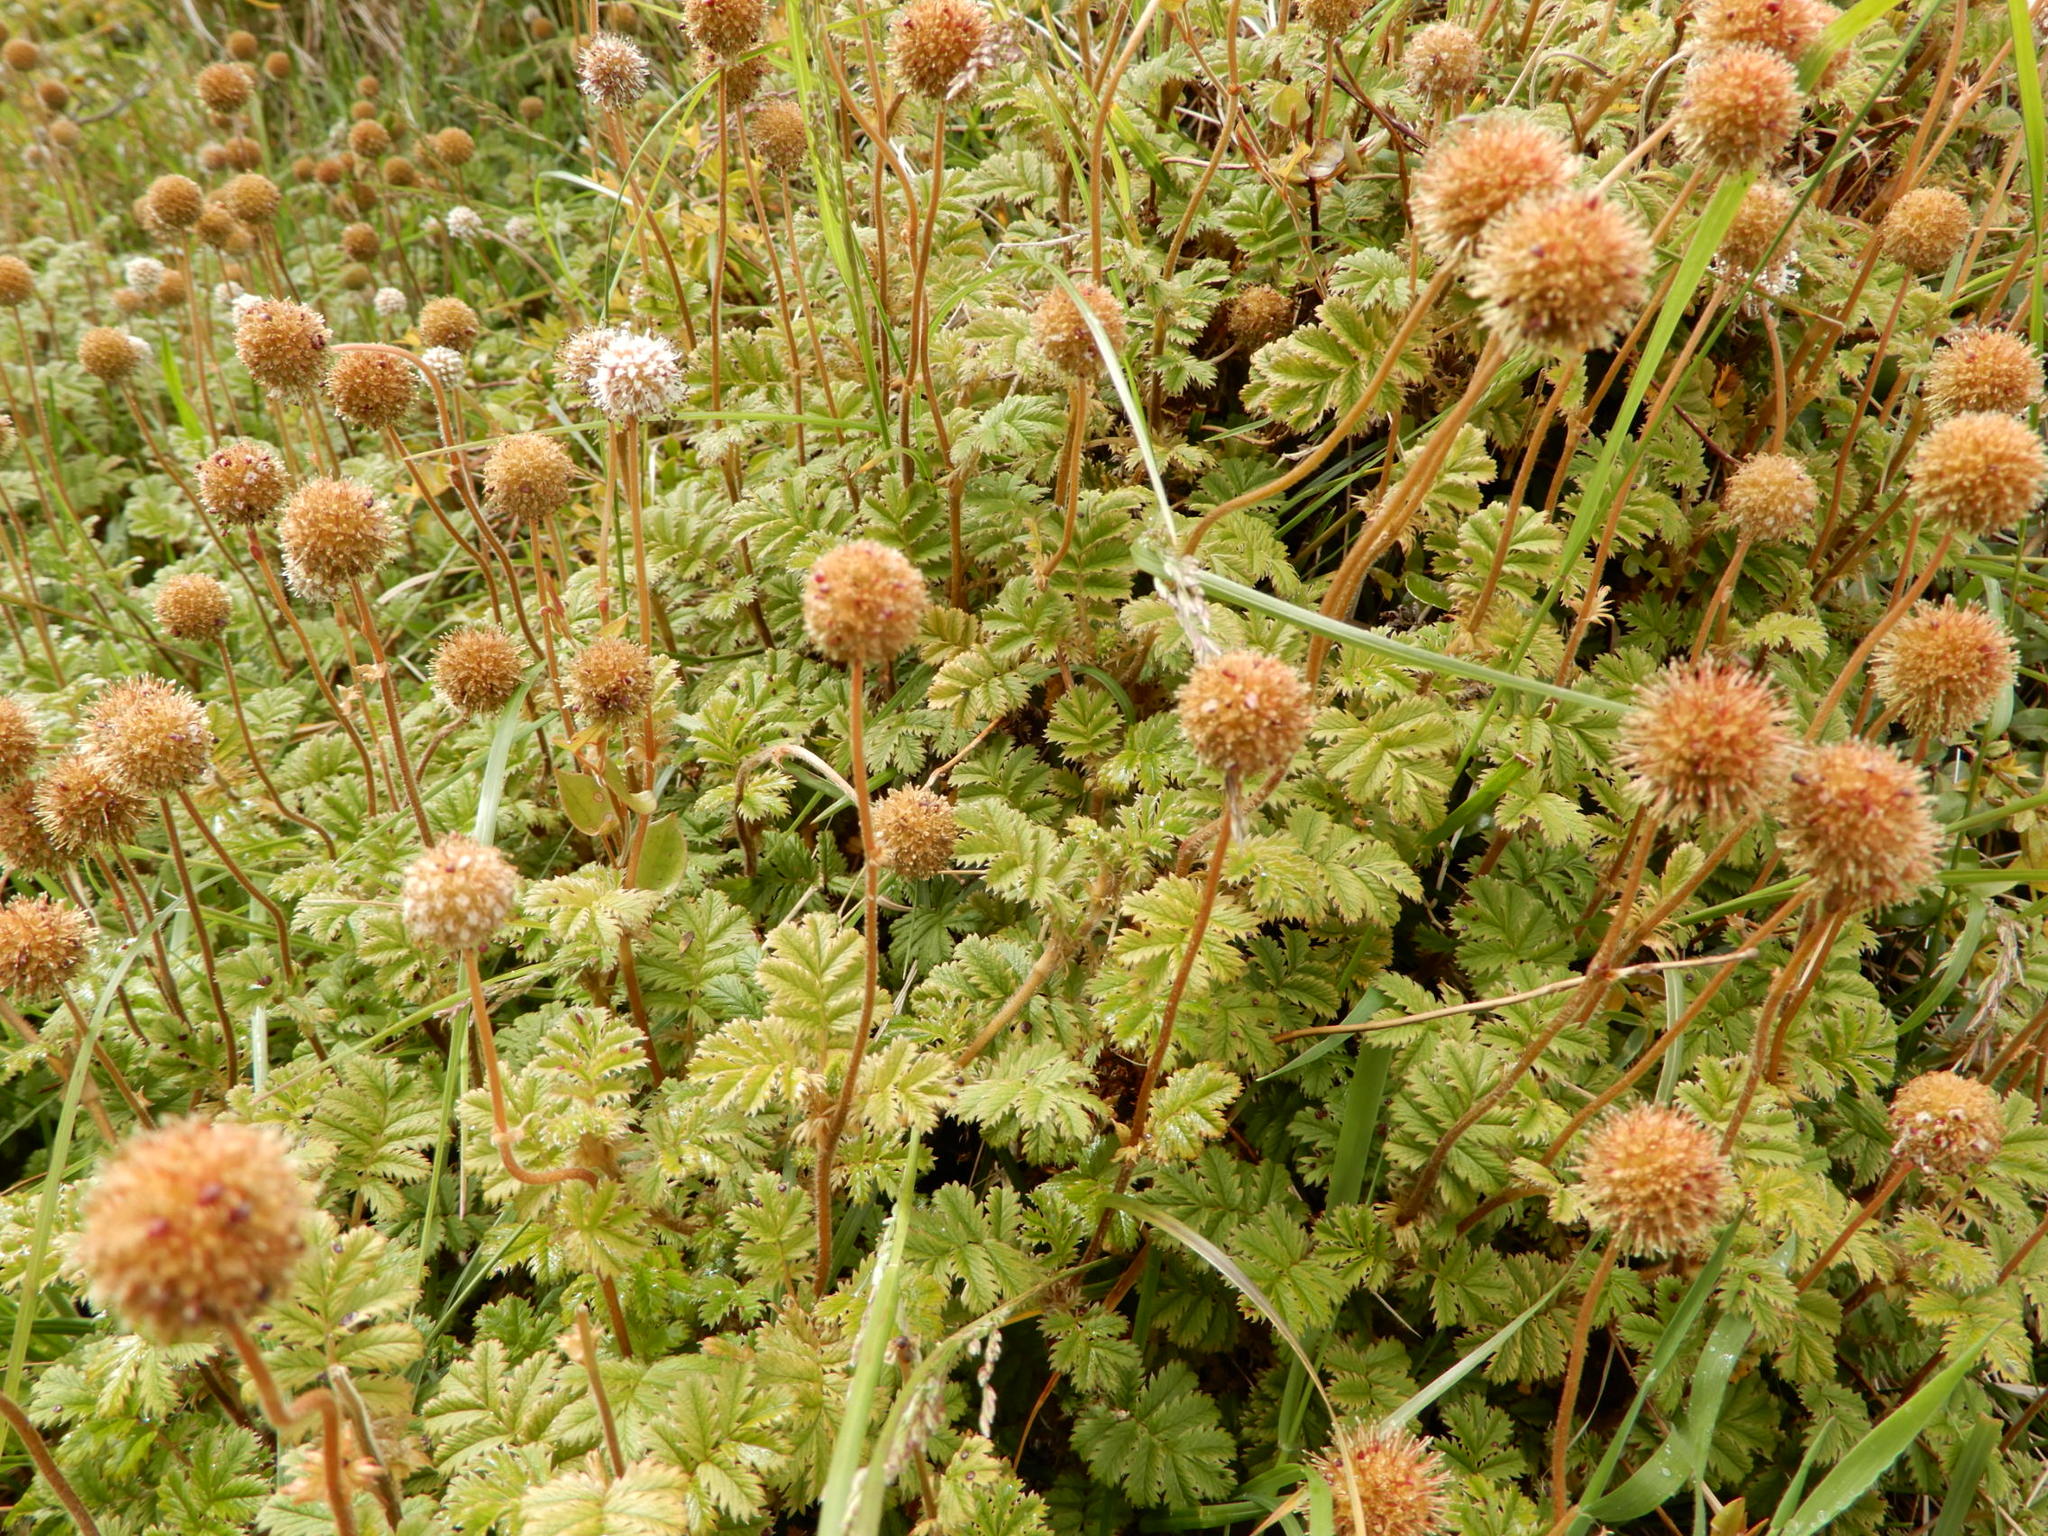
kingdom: Plantae
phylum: Tracheophyta
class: Magnoliopsida
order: Rosales
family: Rosaceae
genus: Acaena
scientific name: Acaena anserinifolia
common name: Bronze pirri-pirri-bur
